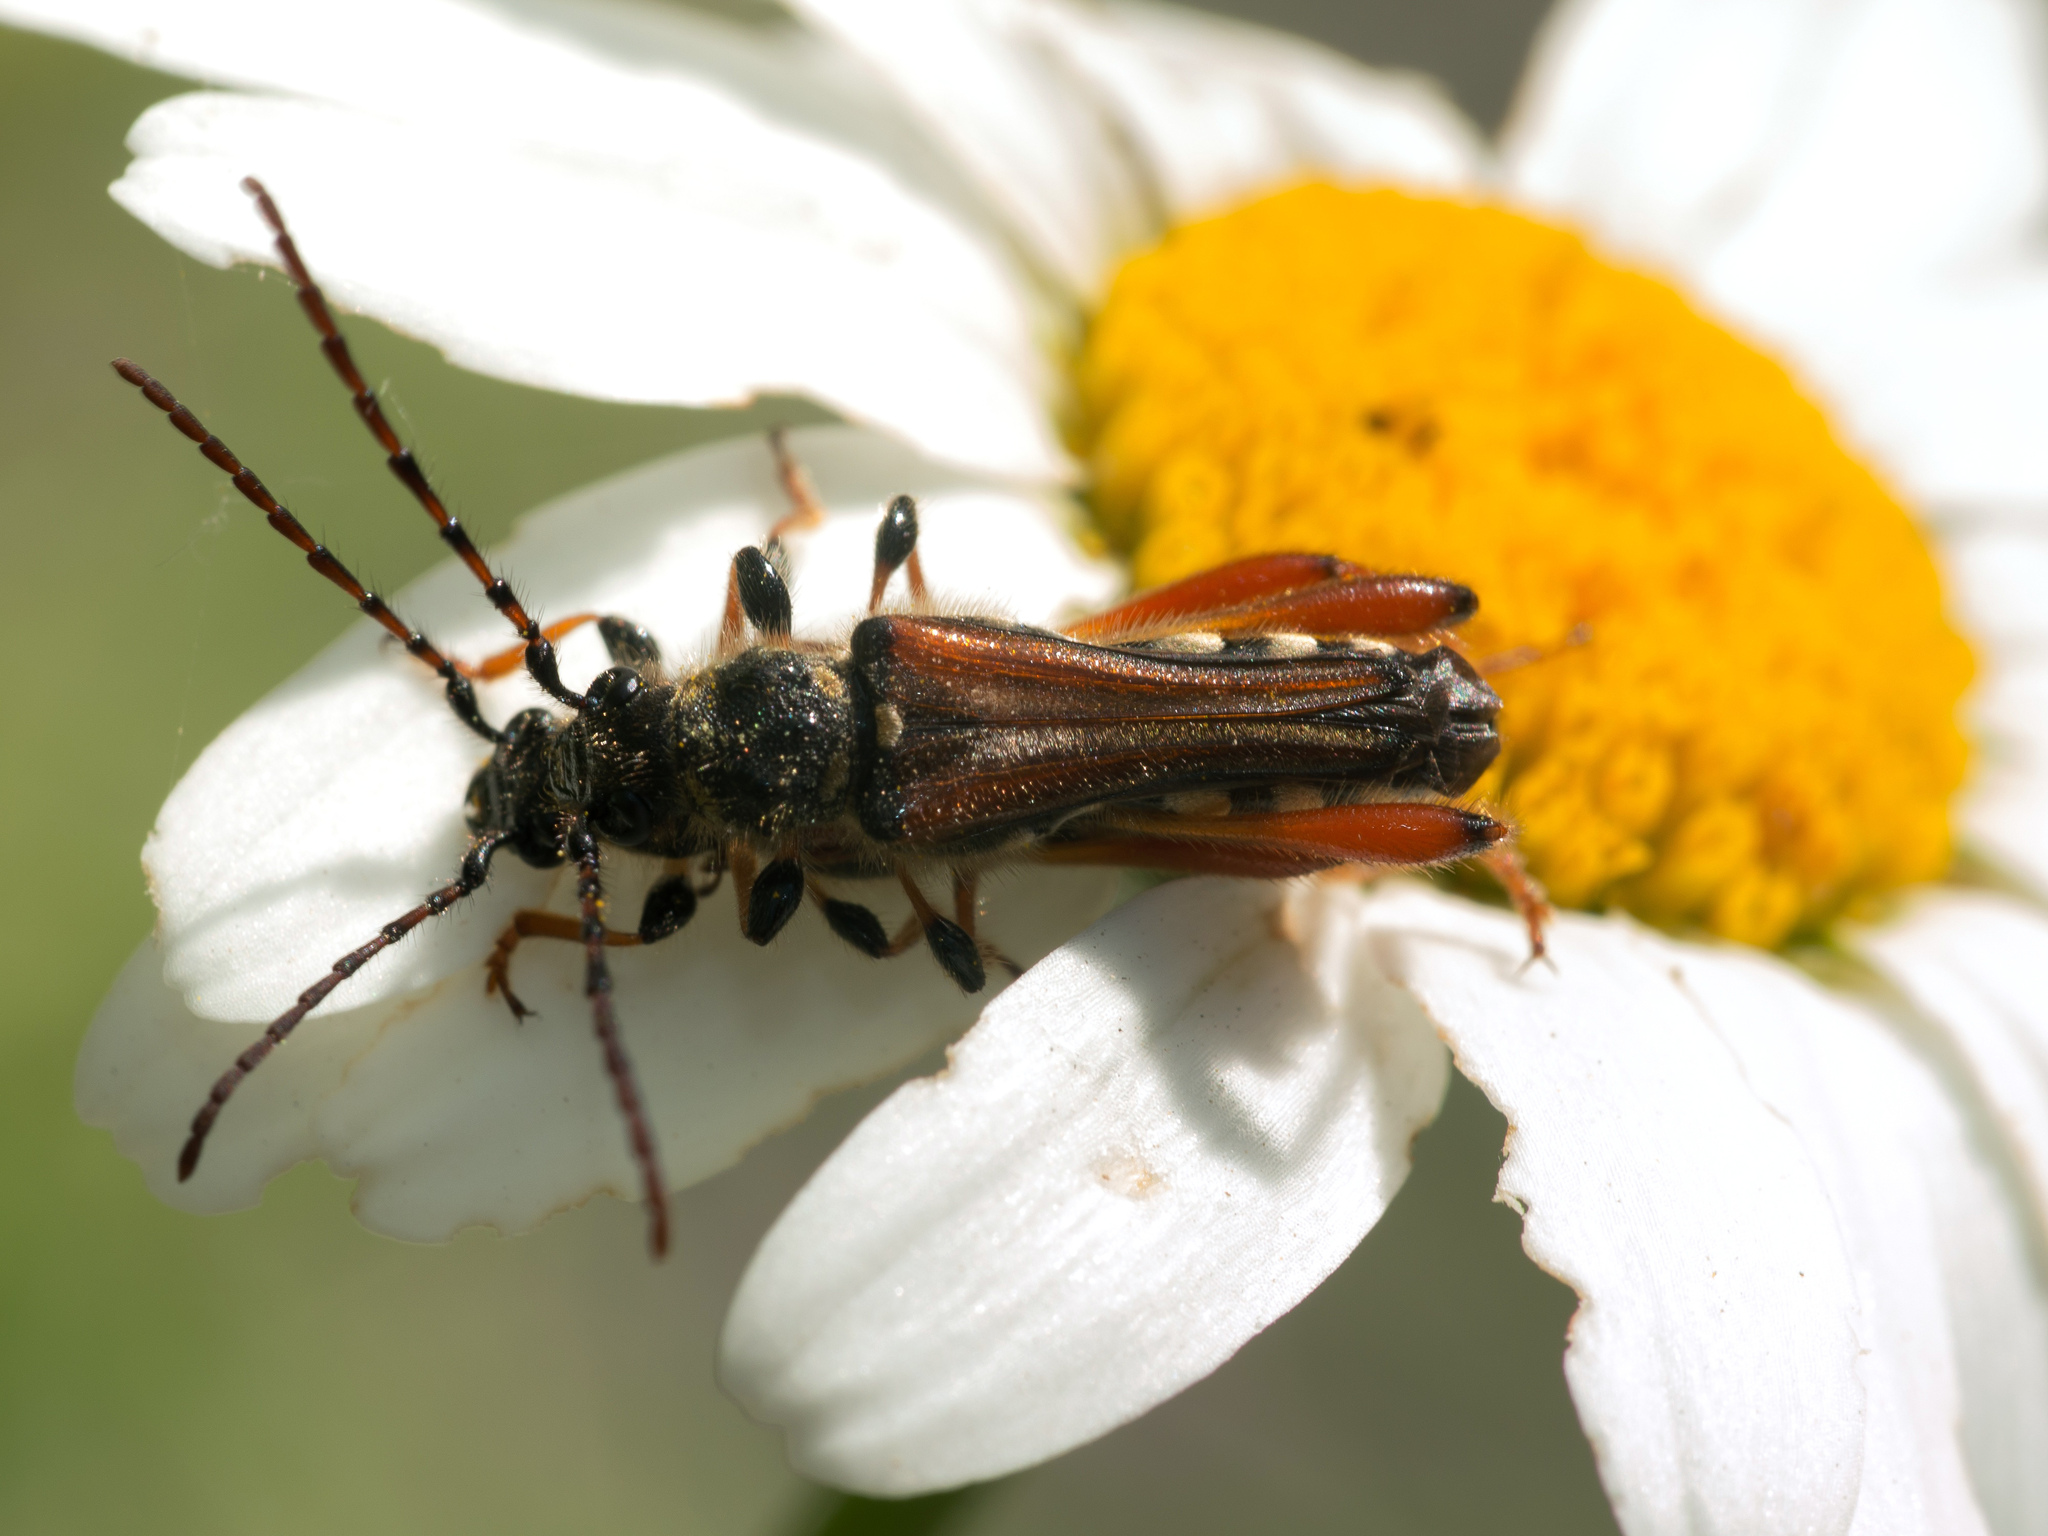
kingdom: Animalia
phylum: Arthropoda
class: Insecta
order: Coleoptera
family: Cerambycidae
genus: Stenopterus
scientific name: Stenopterus rufus
